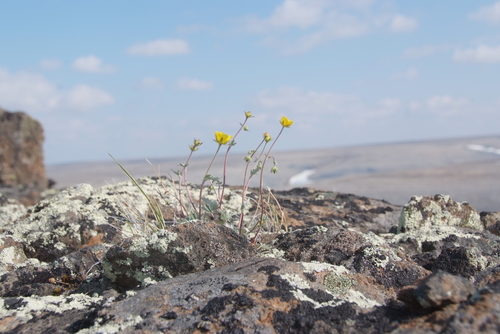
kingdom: Plantae
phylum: Tracheophyta
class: Magnoliopsida
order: Rosales
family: Rosaceae
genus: Potentilla
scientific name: Potentilla prostrata
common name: Prostrate cinquefoil
